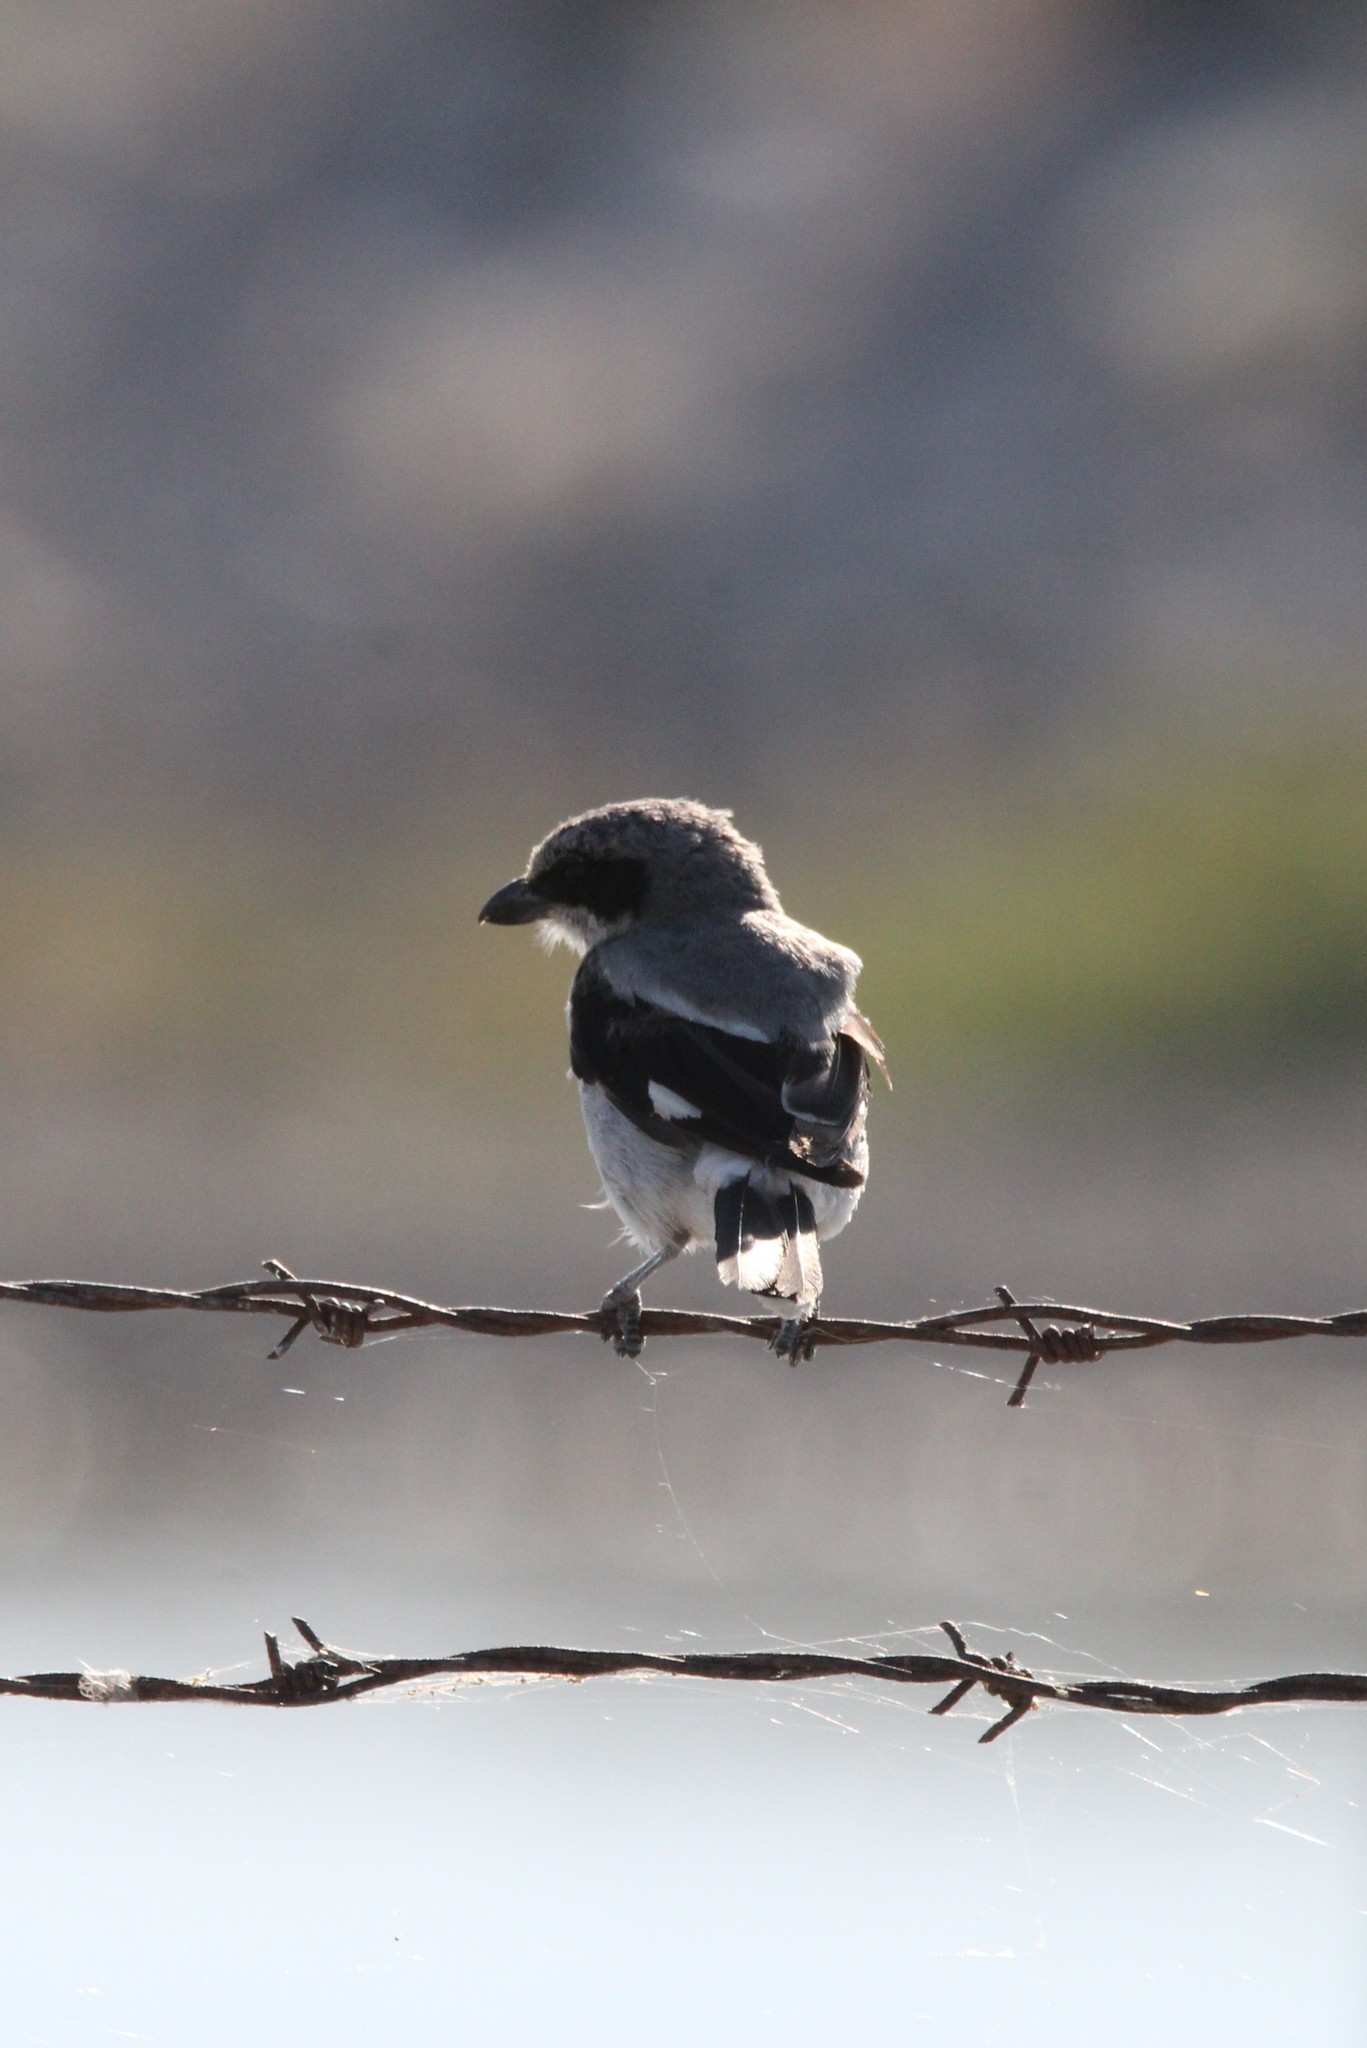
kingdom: Animalia
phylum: Chordata
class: Aves
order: Passeriformes
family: Laniidae
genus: Lanius
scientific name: Lanius ludovicianus
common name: Loggerhead shrike
